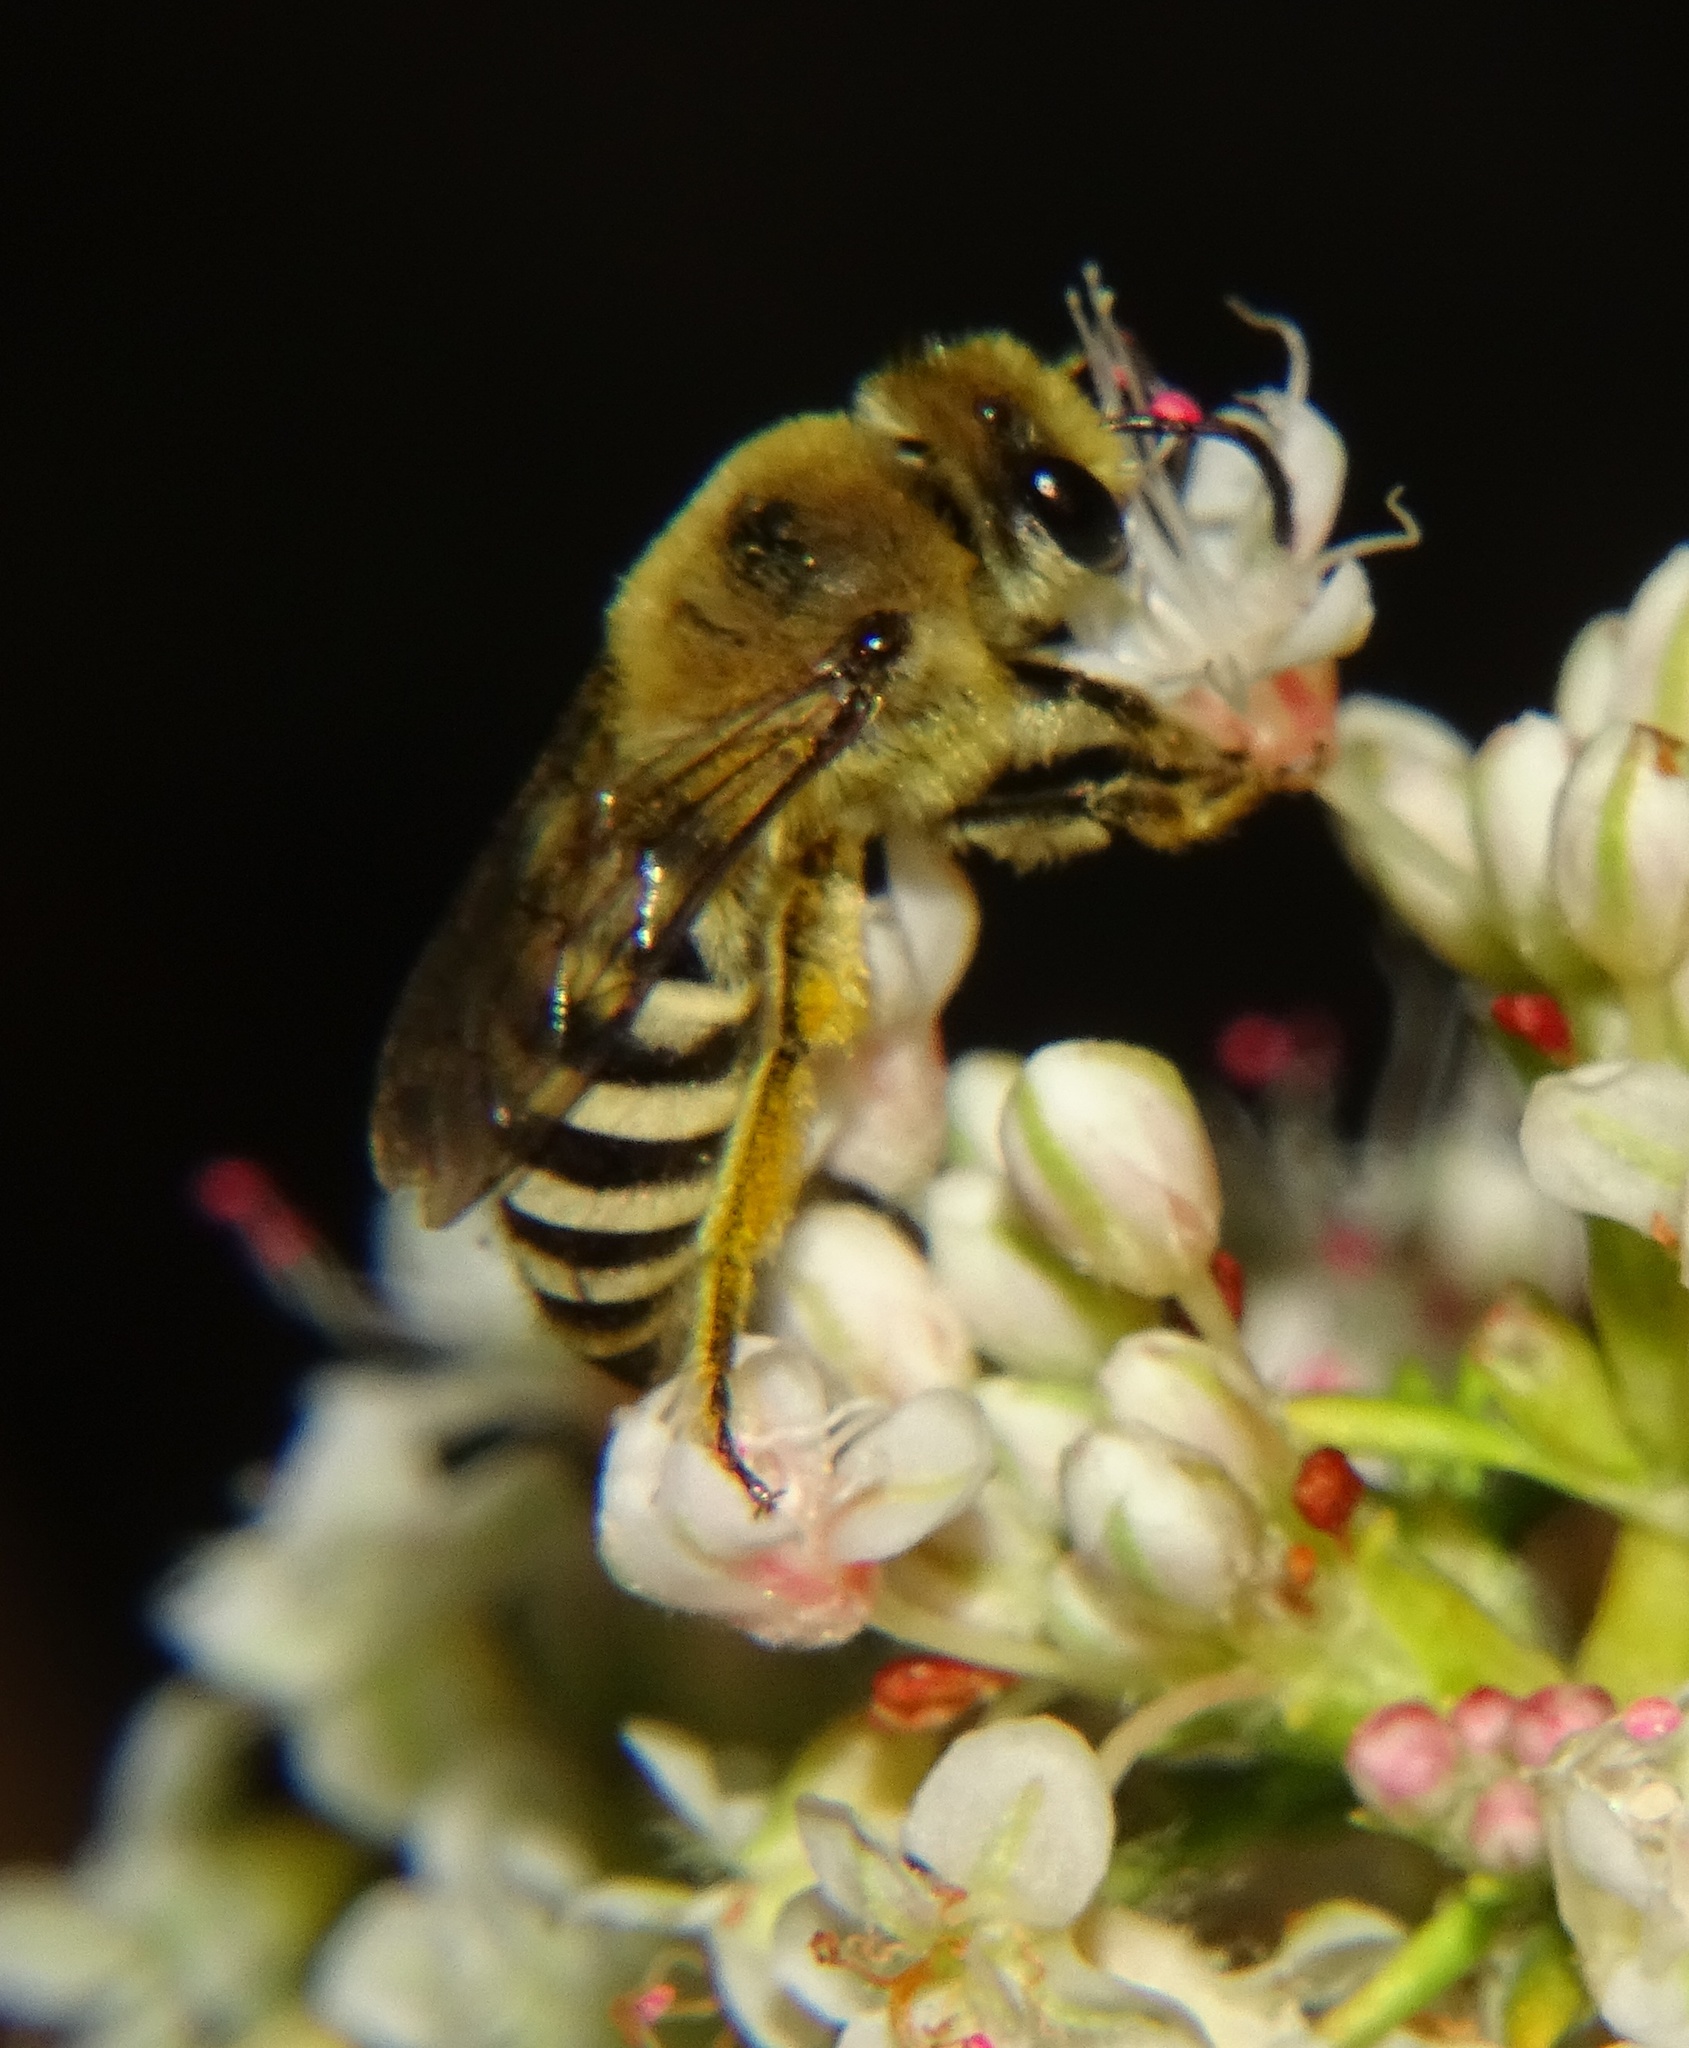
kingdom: Animalia
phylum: Arthropoda
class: Insecta
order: Hymenoptera
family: Colletidae
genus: Colletes
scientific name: Colletes slevini
